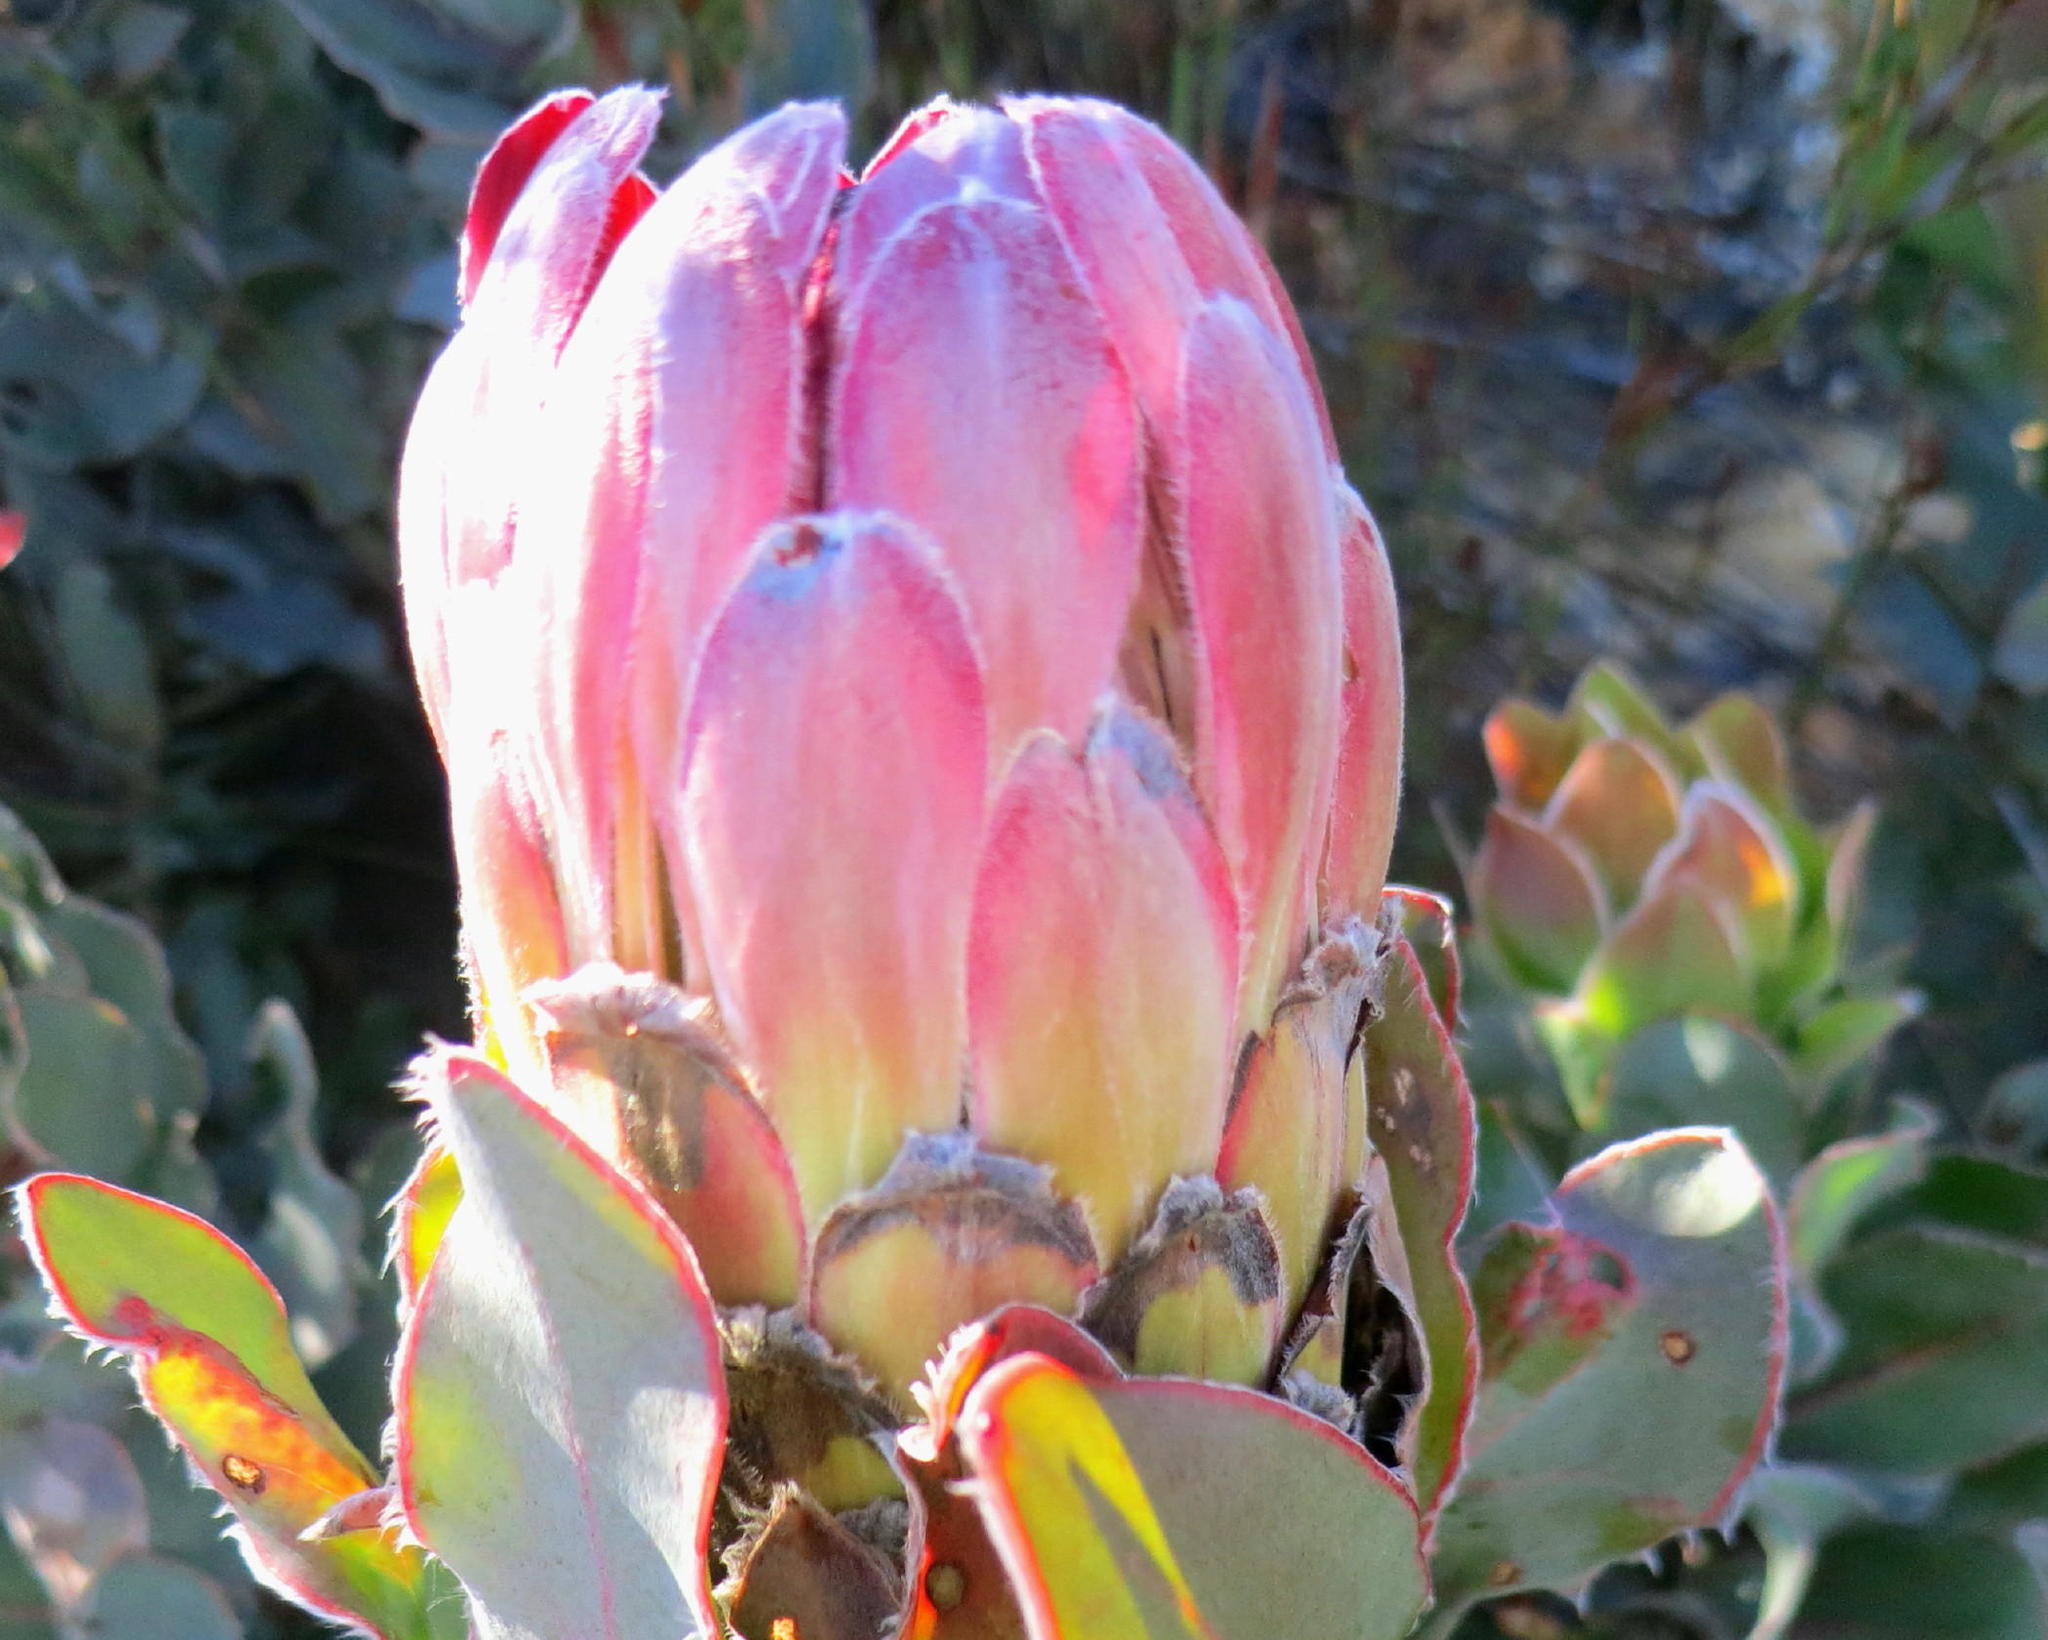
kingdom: Plantae
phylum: Tracheophyta
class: Magnoliopsida
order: Proteales
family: Proteaceae
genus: Protea
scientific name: Protea eximia
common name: Broad-leaved sugarbush
